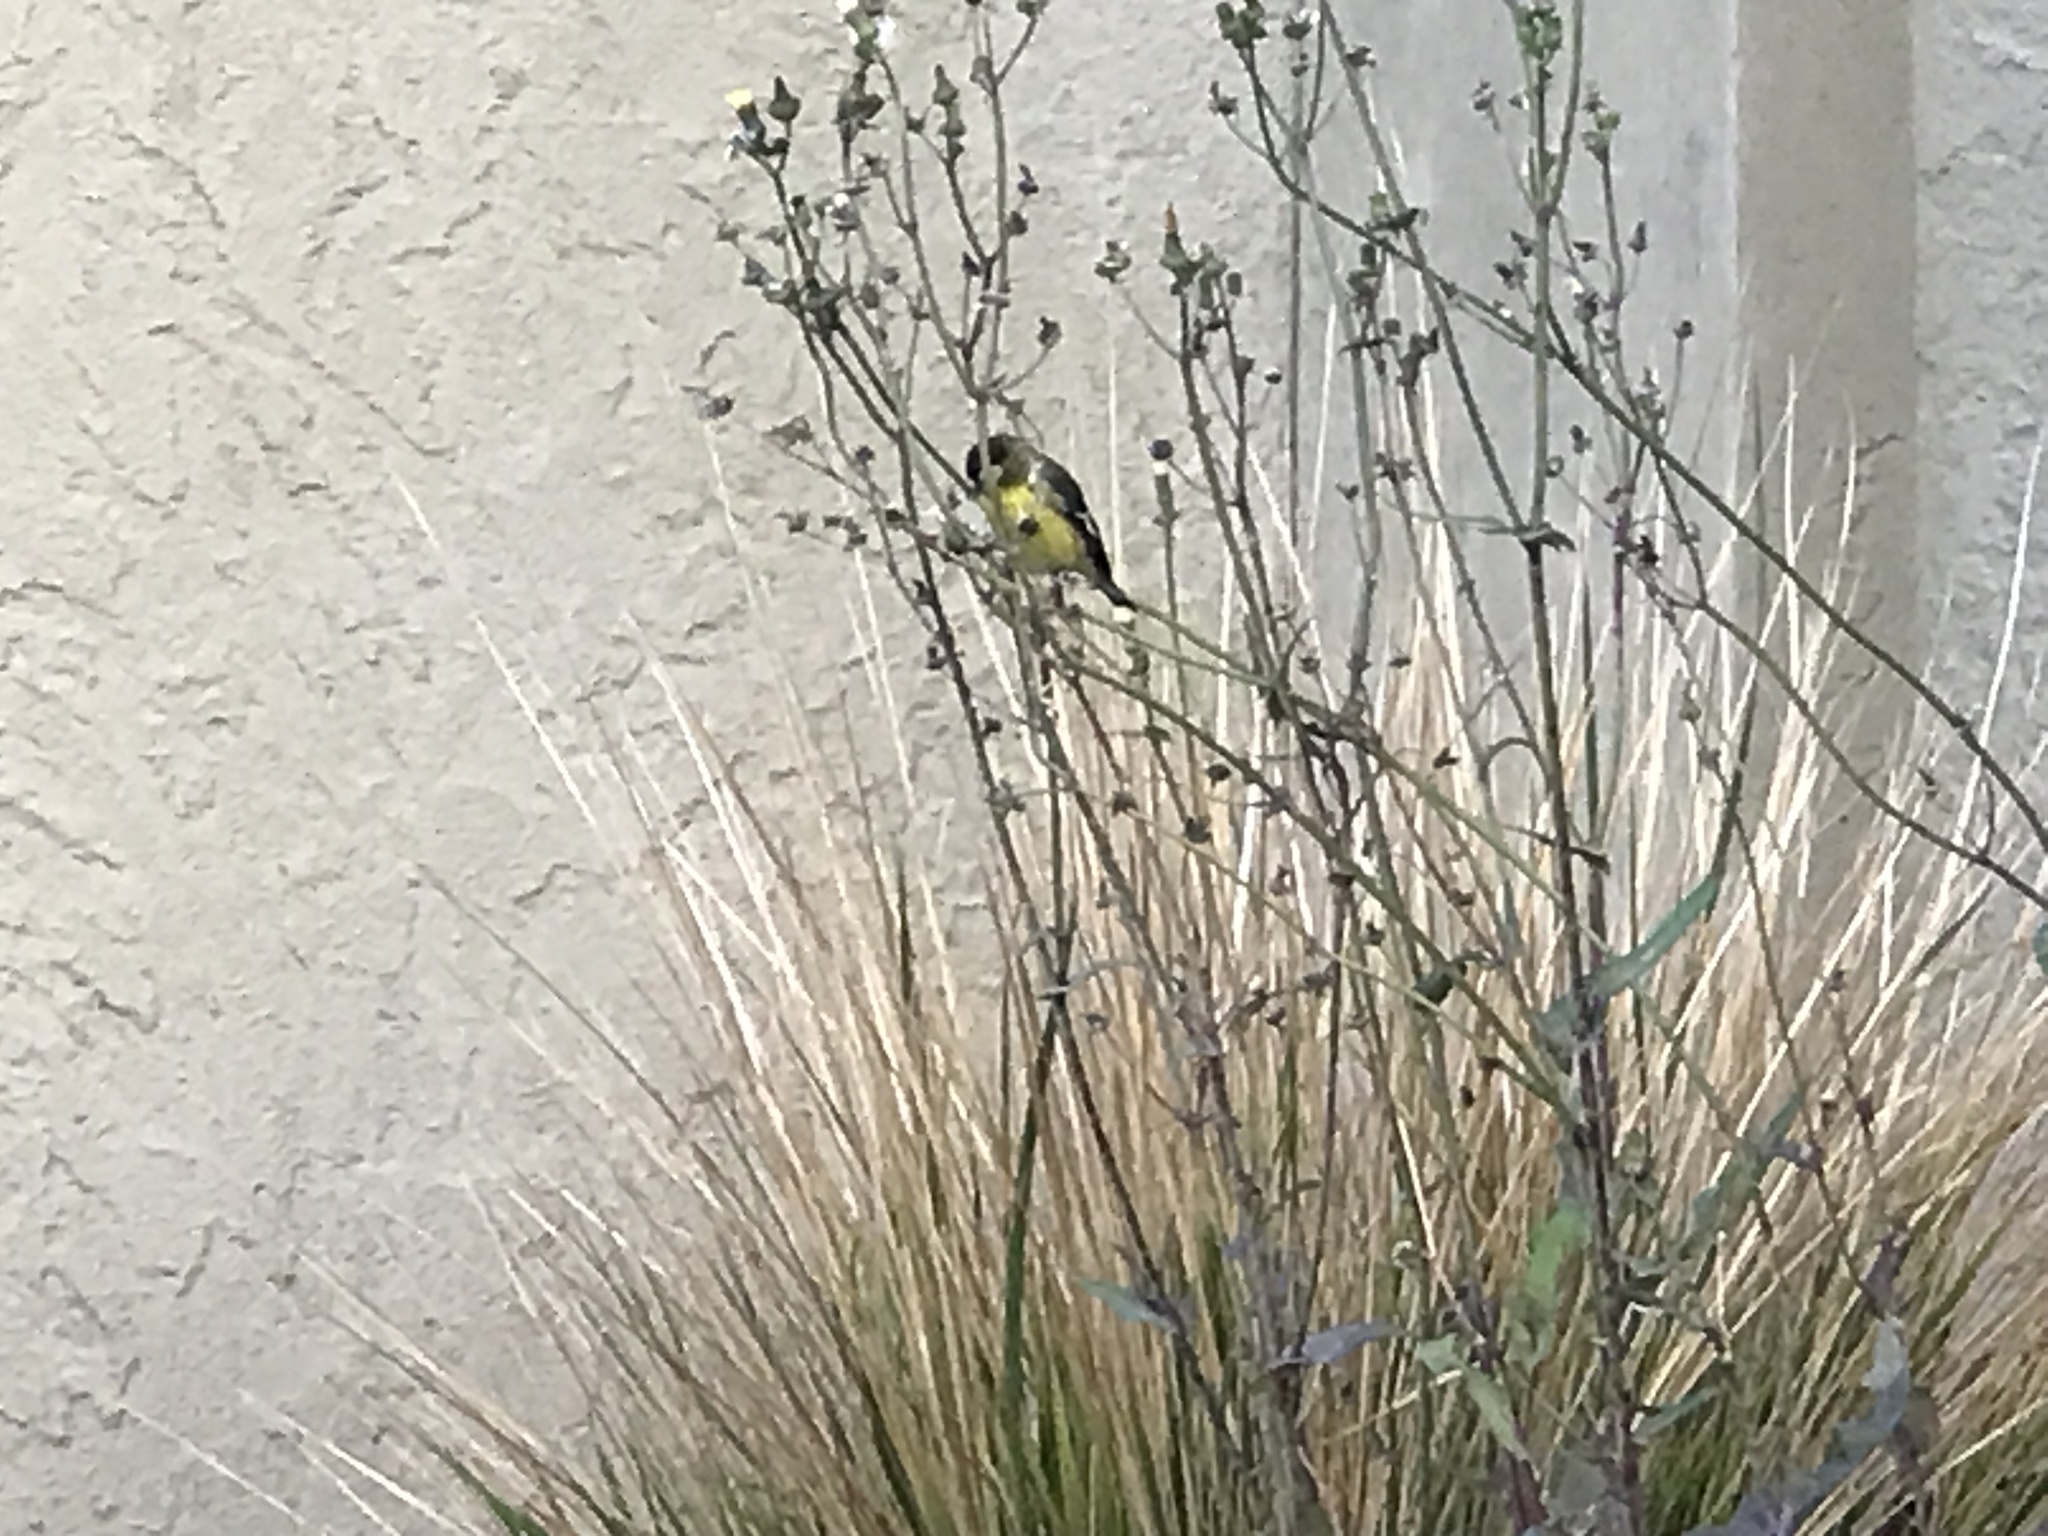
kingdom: Animalia
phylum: Chordata
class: Aves
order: Passeriformes
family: Fringillidae
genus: Spinus
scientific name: Spinus psaltria
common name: Lesser goldfinch
